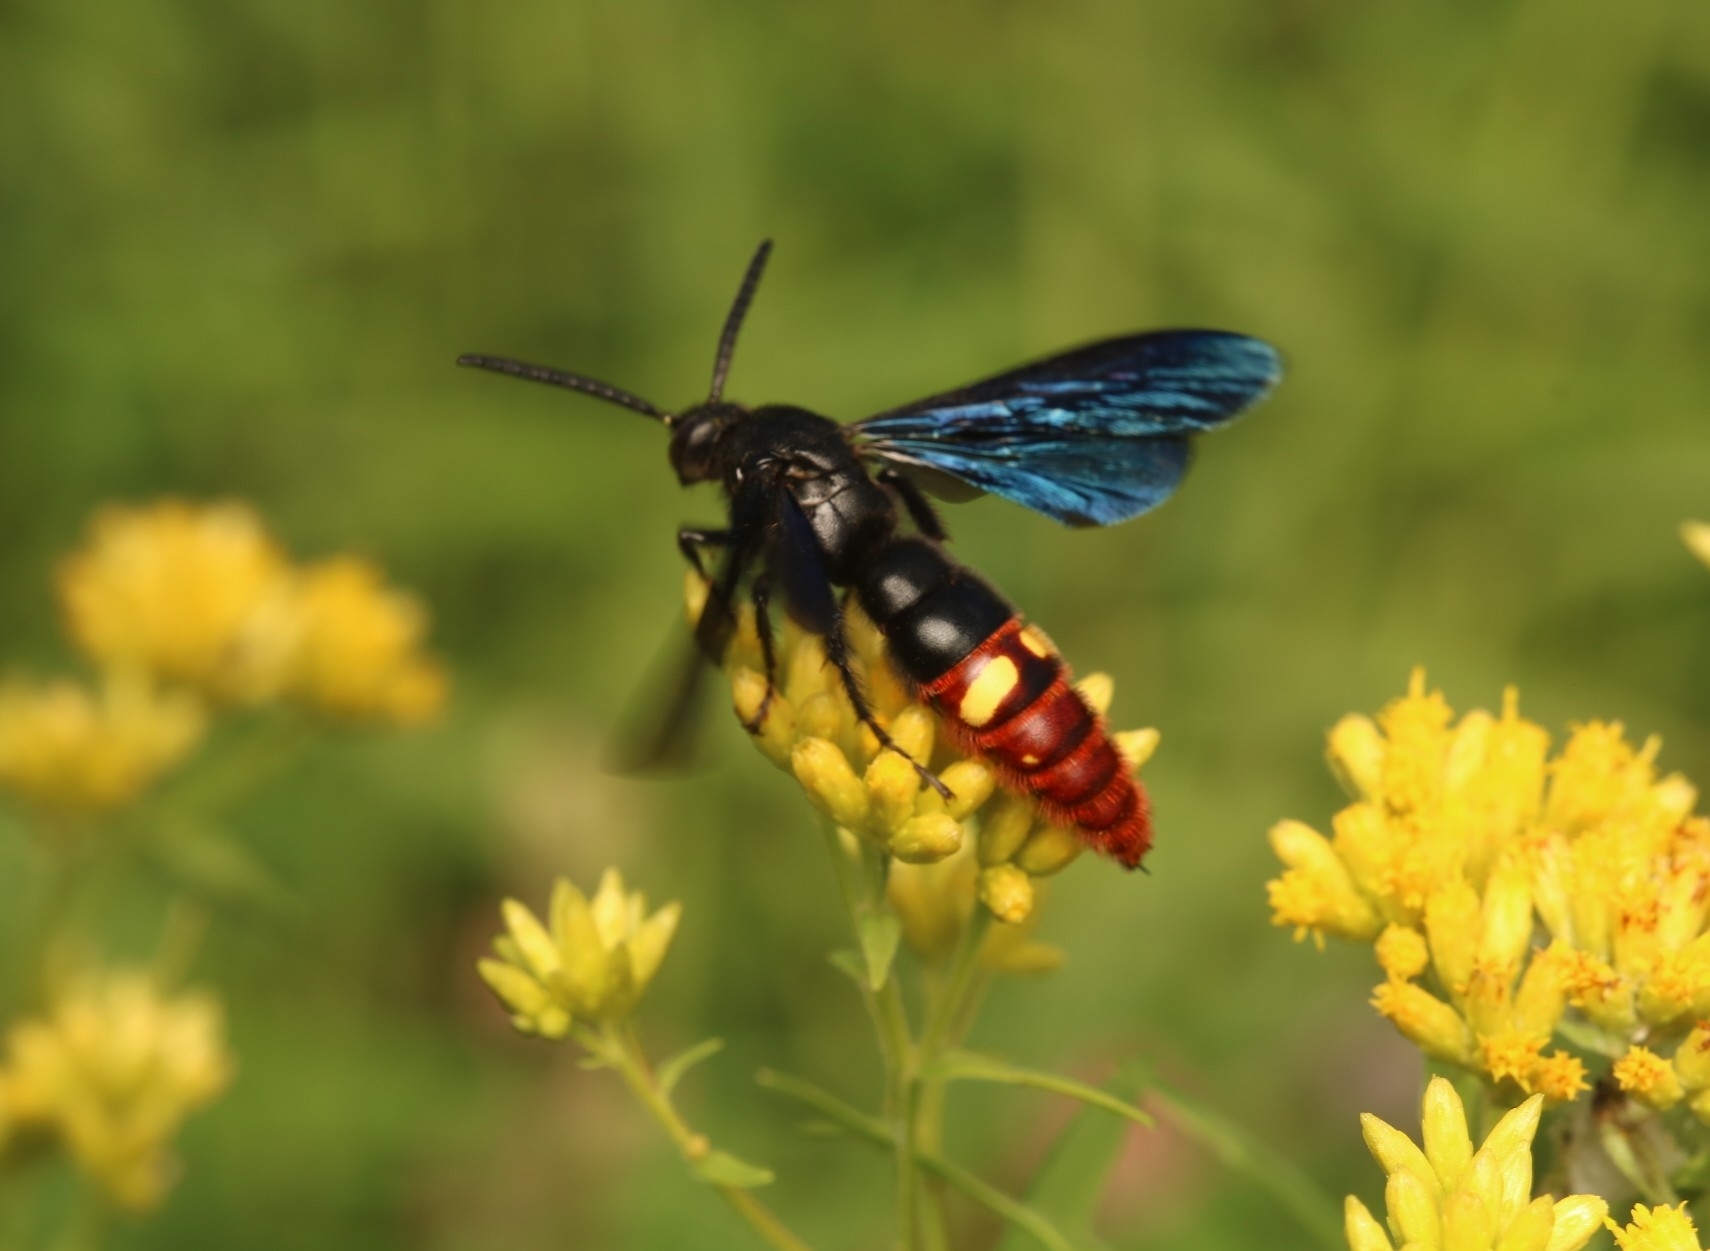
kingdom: Animalia
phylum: Arthropoda
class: Insecta
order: Hymenoptera
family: Scoliidae
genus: Scolia
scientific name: Scolia dubia
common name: Blue-winged scoliid wasp
